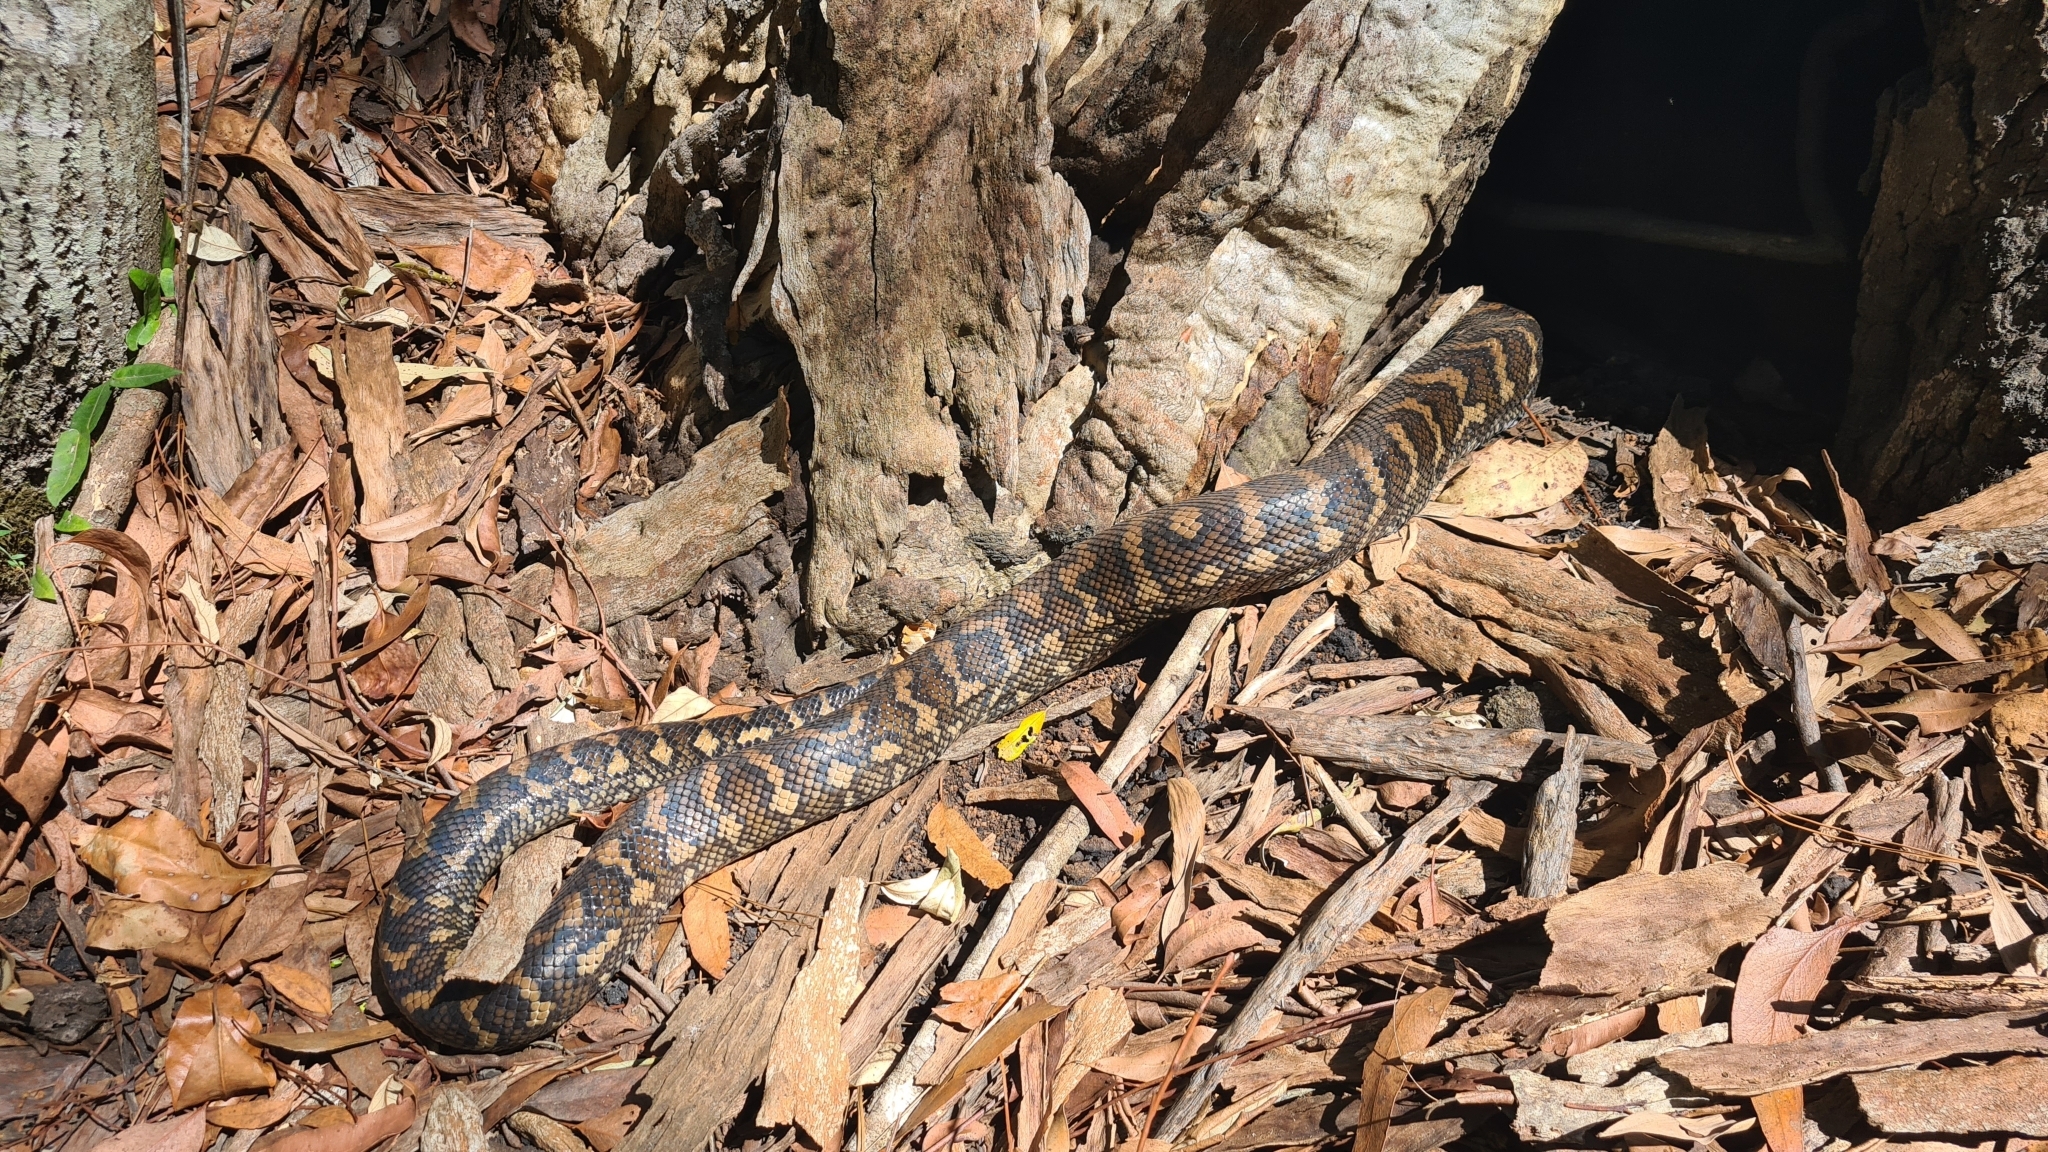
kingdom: Animalia
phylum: Chordata
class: Squamata
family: Pythonidae
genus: Morelia
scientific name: Morelia spilota
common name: Carpet python
